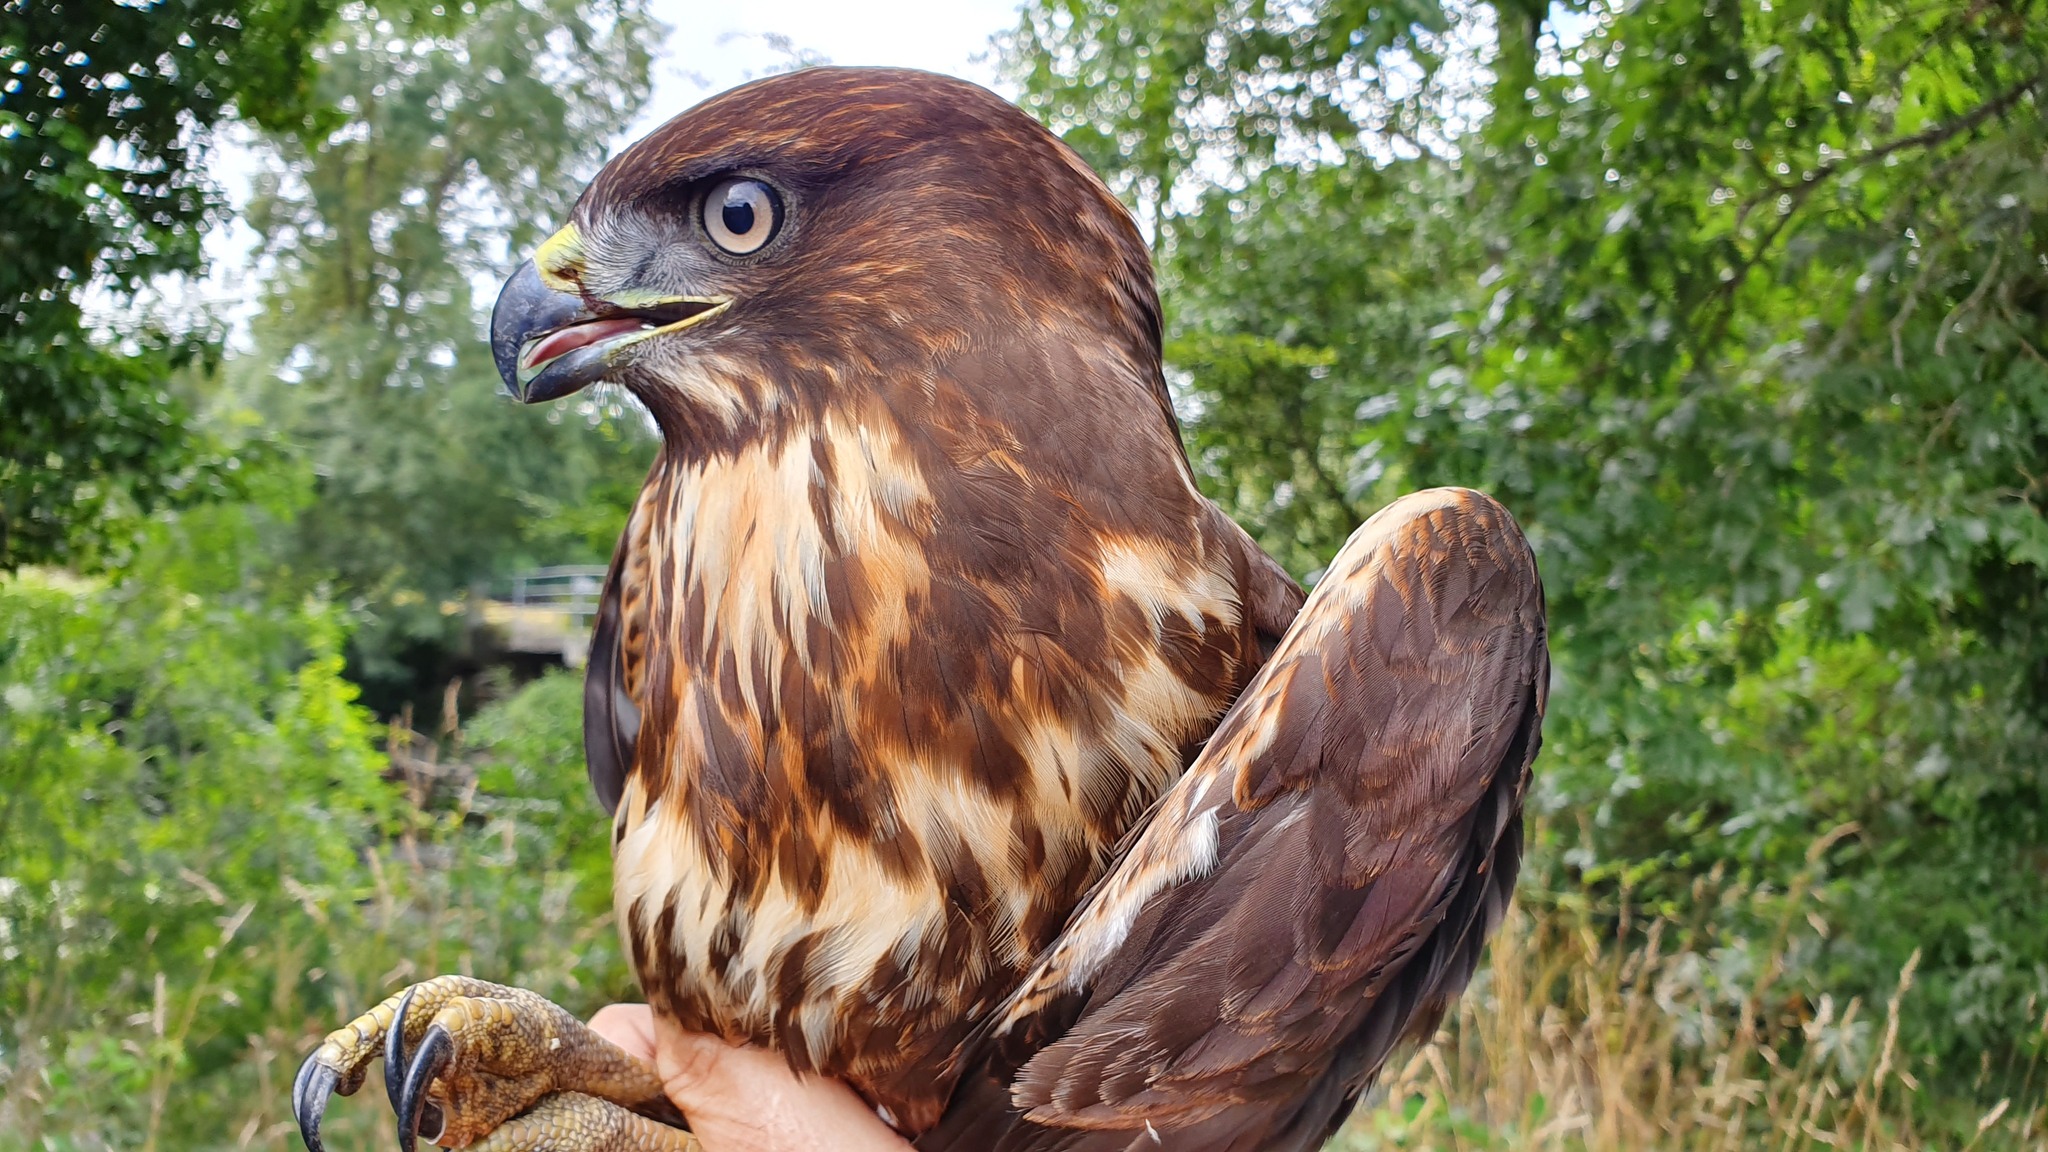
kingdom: Animalia
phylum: Chordata
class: Aves
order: Accipitriformes
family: Accipitridae
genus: Buteo
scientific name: Buteo buteo
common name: Common buzzard
